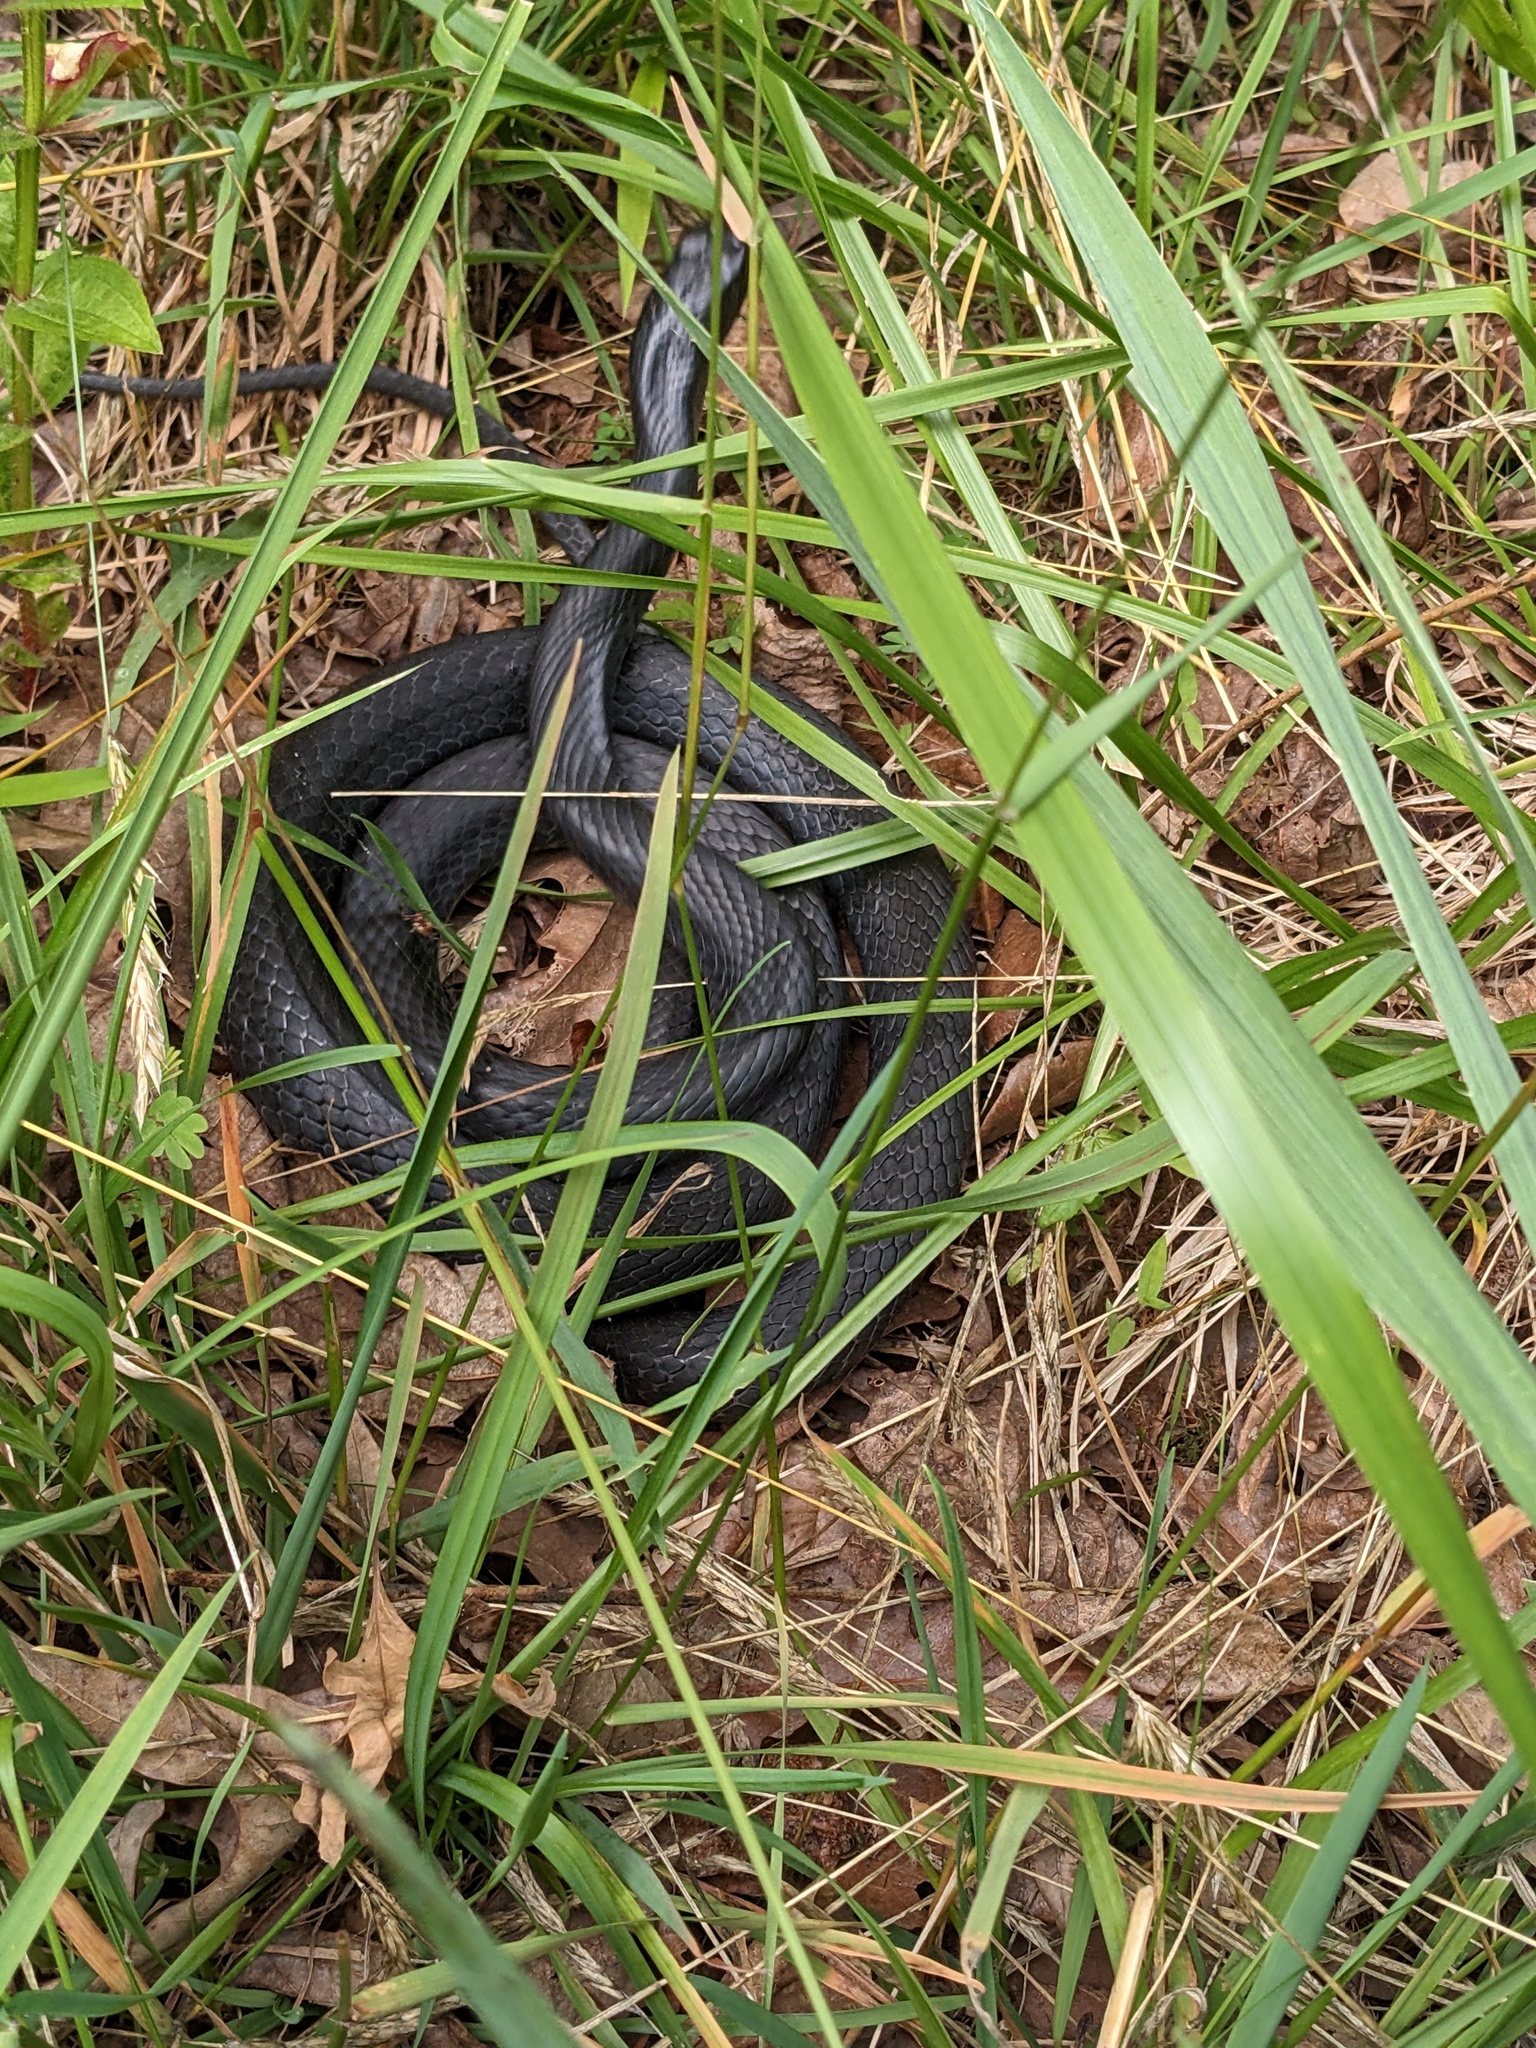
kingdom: Animalia
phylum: Chordata
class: Squamata
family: Colubridae
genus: Coluber
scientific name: Coluber constrictor
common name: Eastern racer
